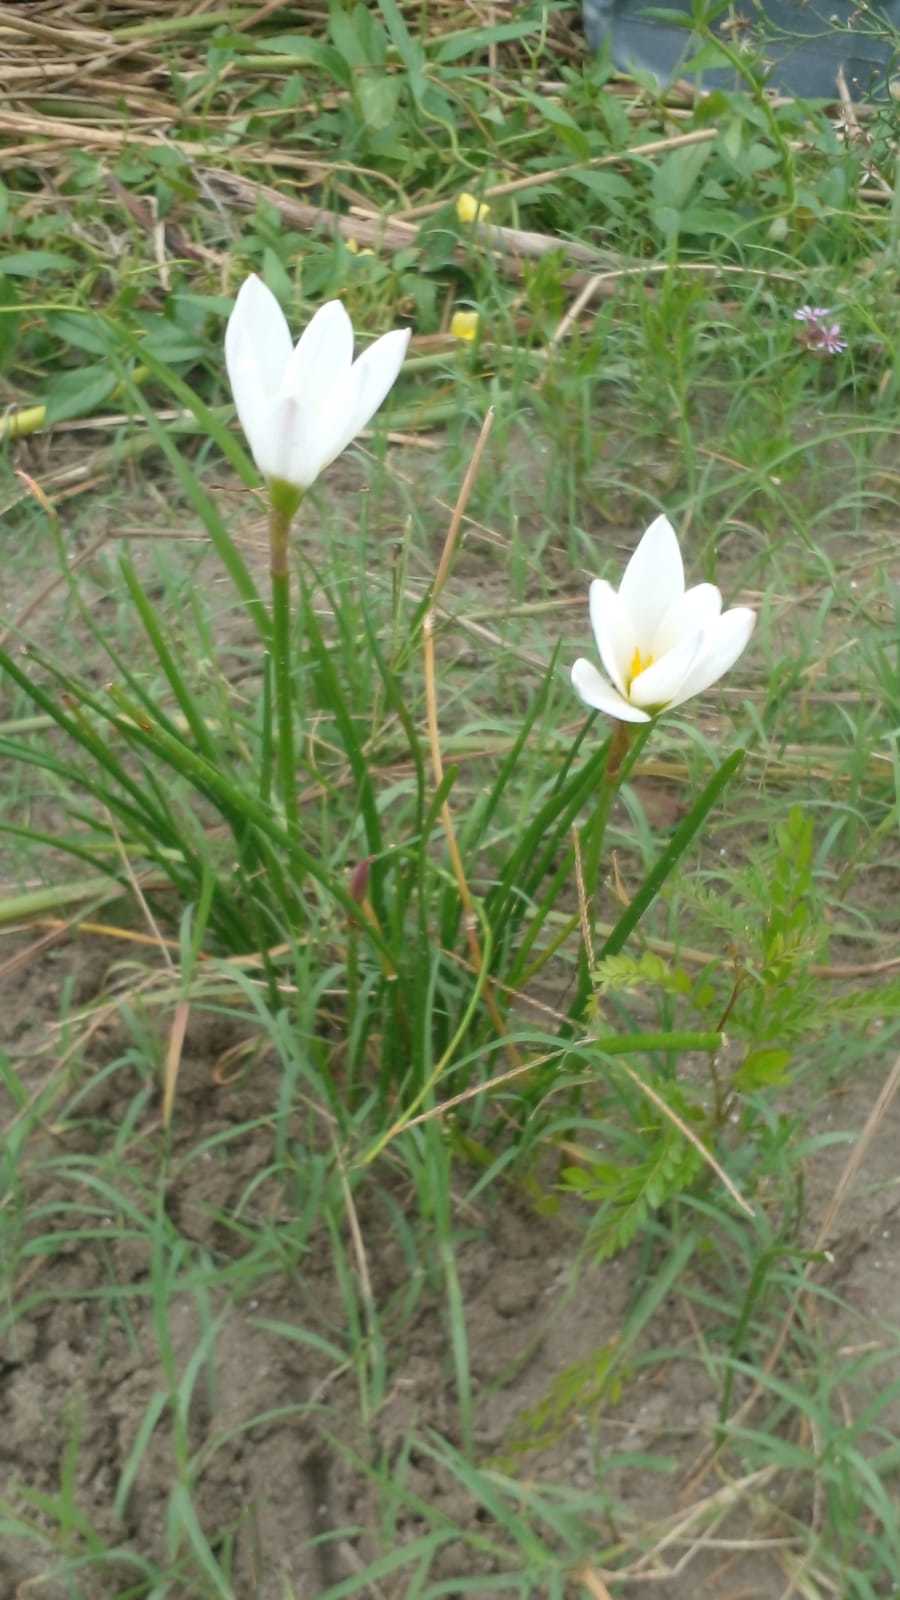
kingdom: Plantae
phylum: Tracheophyta
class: Liliopsida
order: Asparagales
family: Amaryllidaceae
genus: Zephyranthes
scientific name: Zephyranthes candida
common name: Autumn zephyrlily
